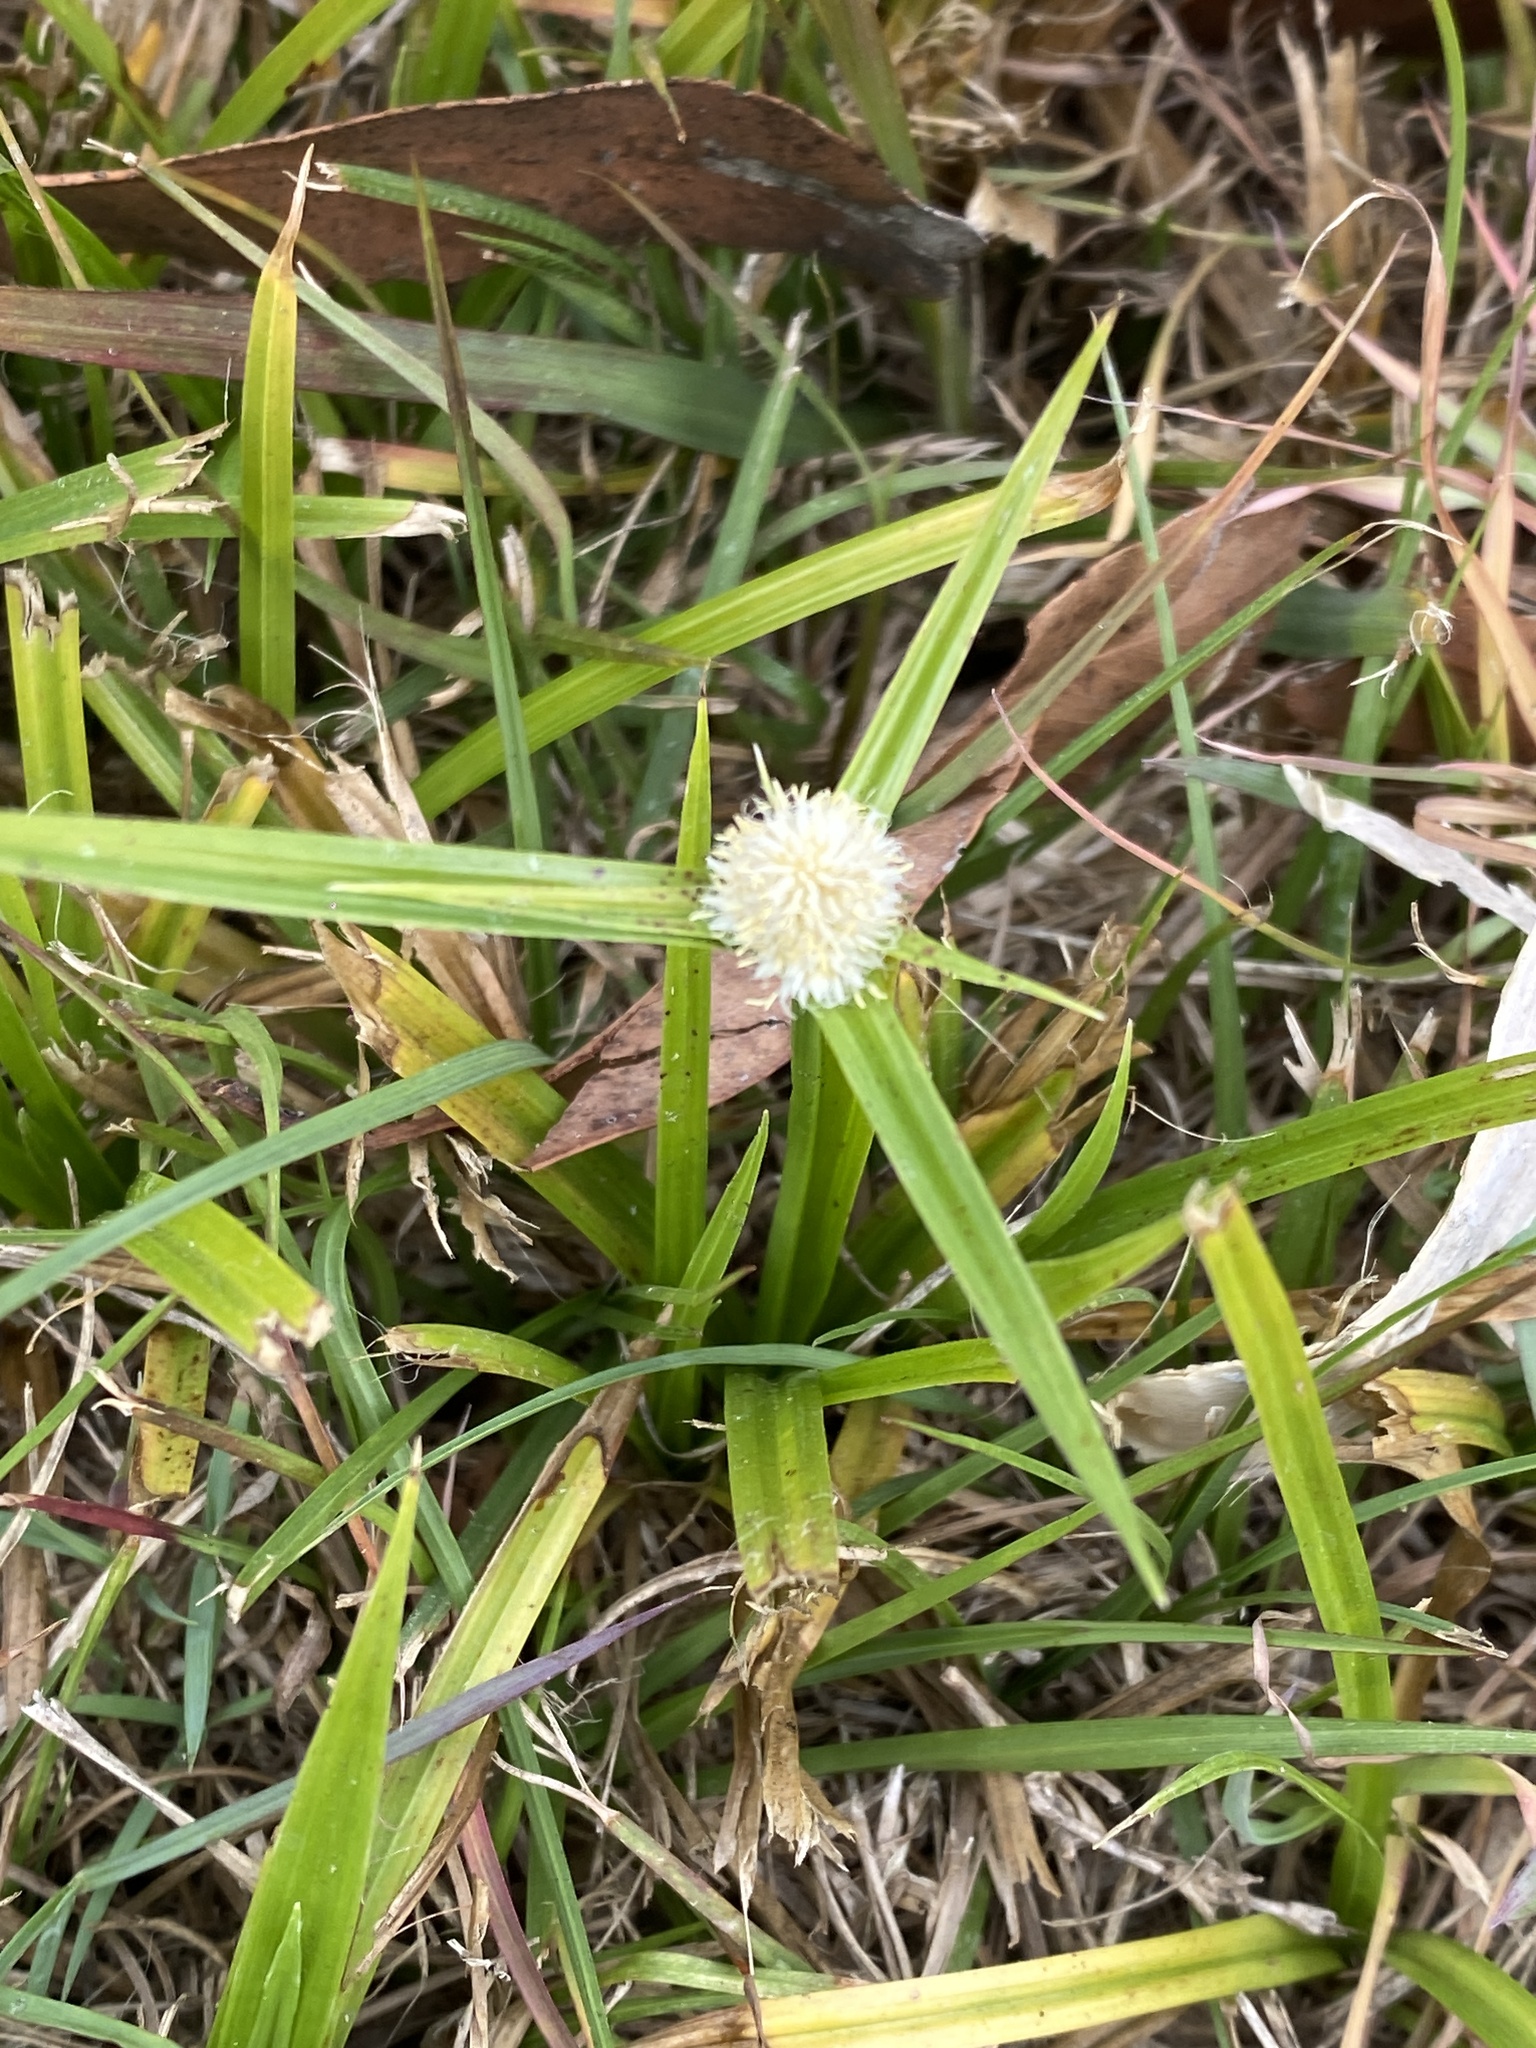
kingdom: Plantae
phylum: Tracheophyta
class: Liliopsida
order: Poales
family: Cyperaceae
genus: Cyperus
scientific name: Cyperus sesquiflorus
